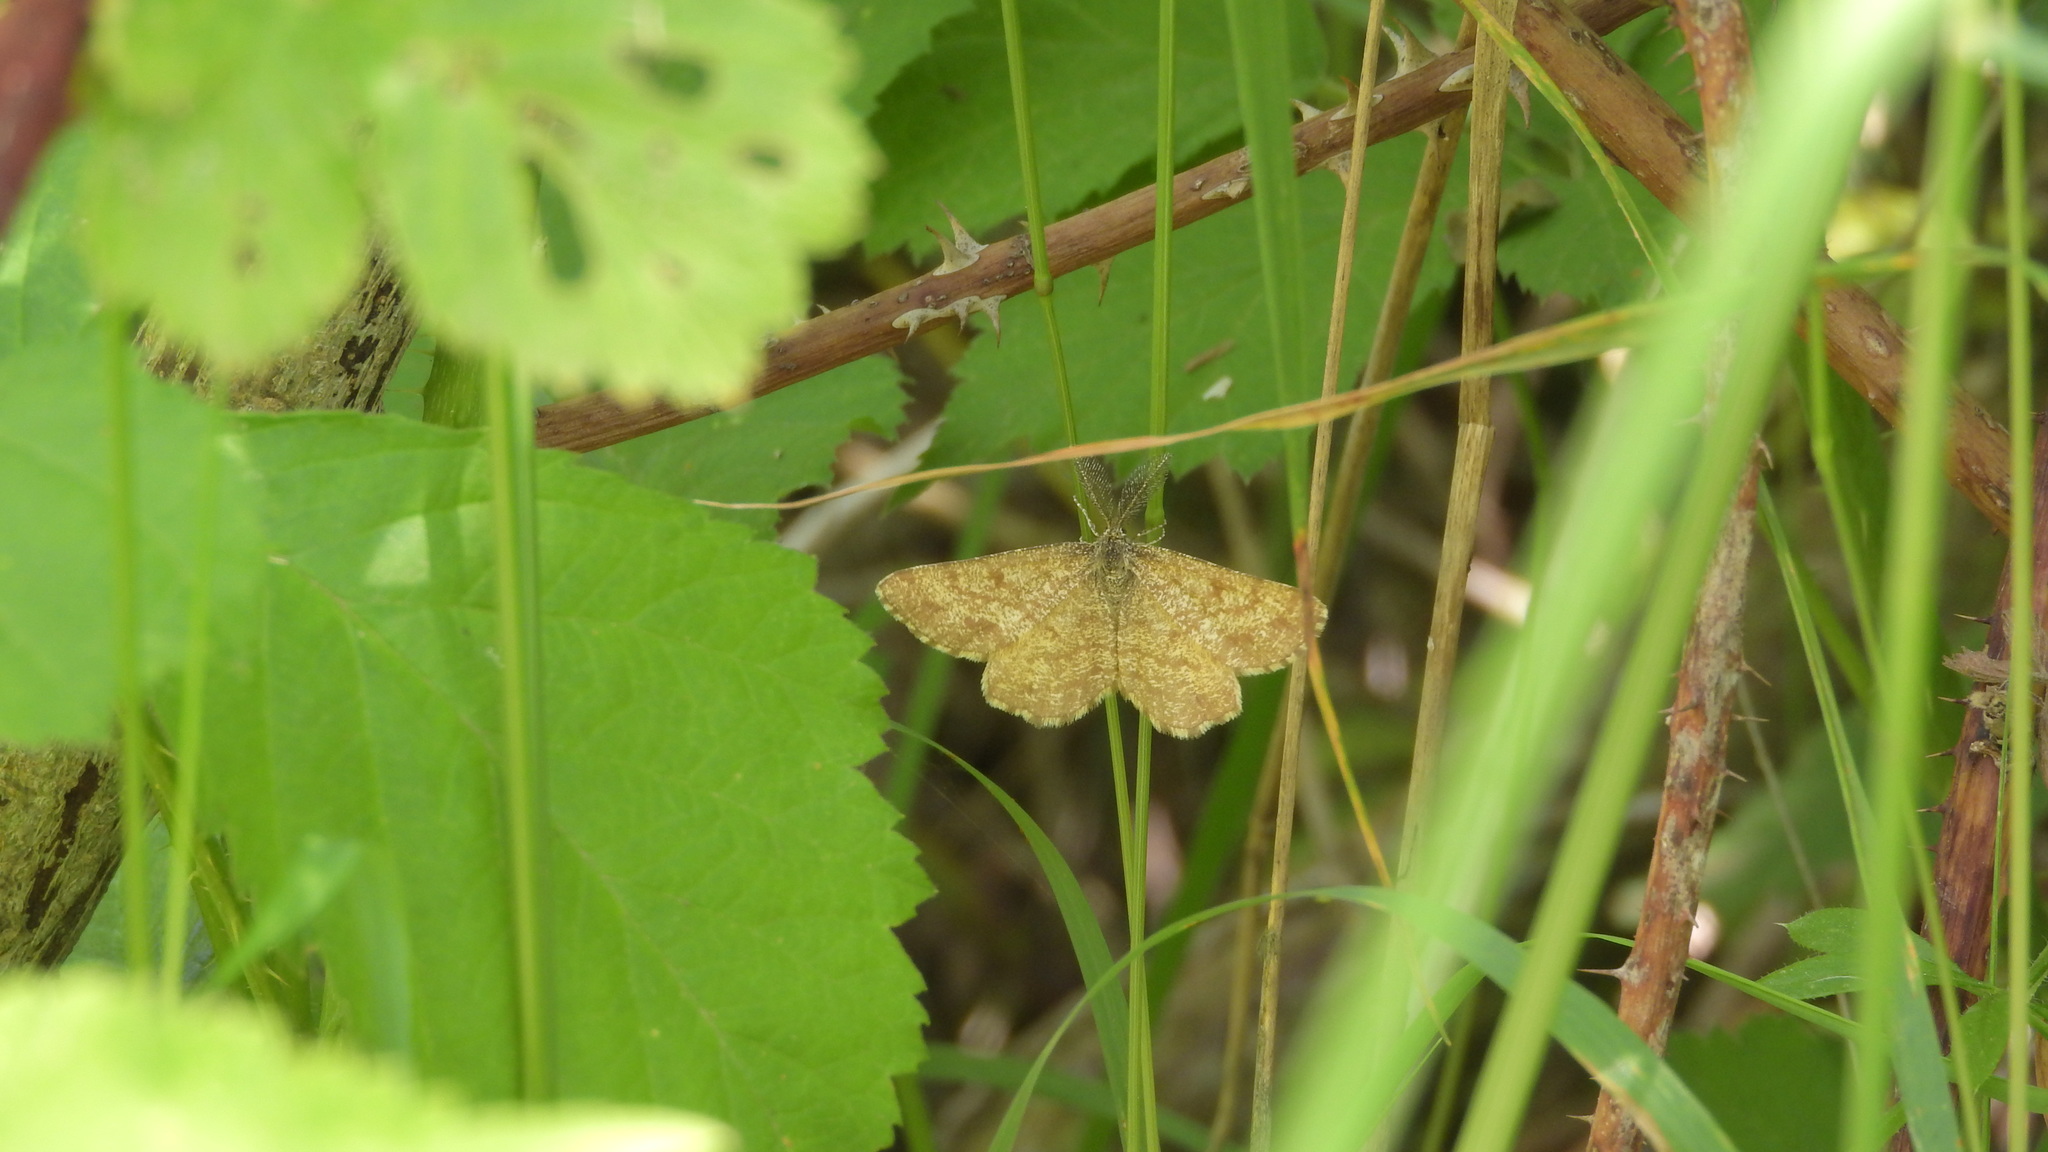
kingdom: Animalia
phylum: Arthropoda
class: Insecta
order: Lepidoptera
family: Geometridae
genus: Ematurga
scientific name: Ematurga atomaria
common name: Common heath
